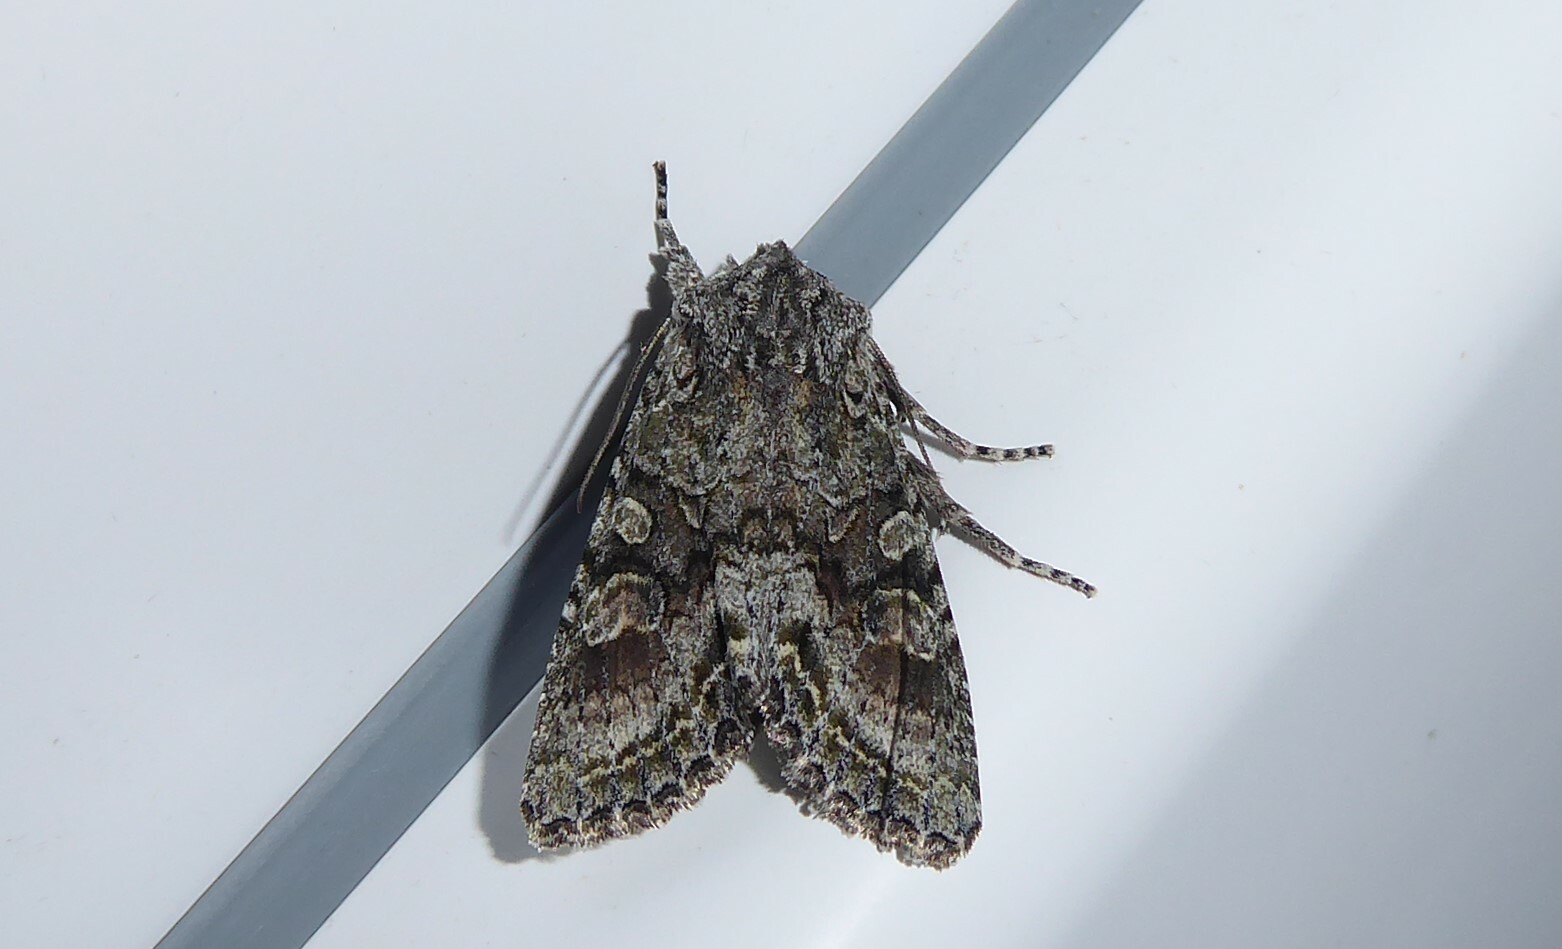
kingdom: Animalia
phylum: Arthropoda
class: Insecta
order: Lepidoptera
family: Noctuidae
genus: Ichneutica
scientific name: Ichneutica mutans
